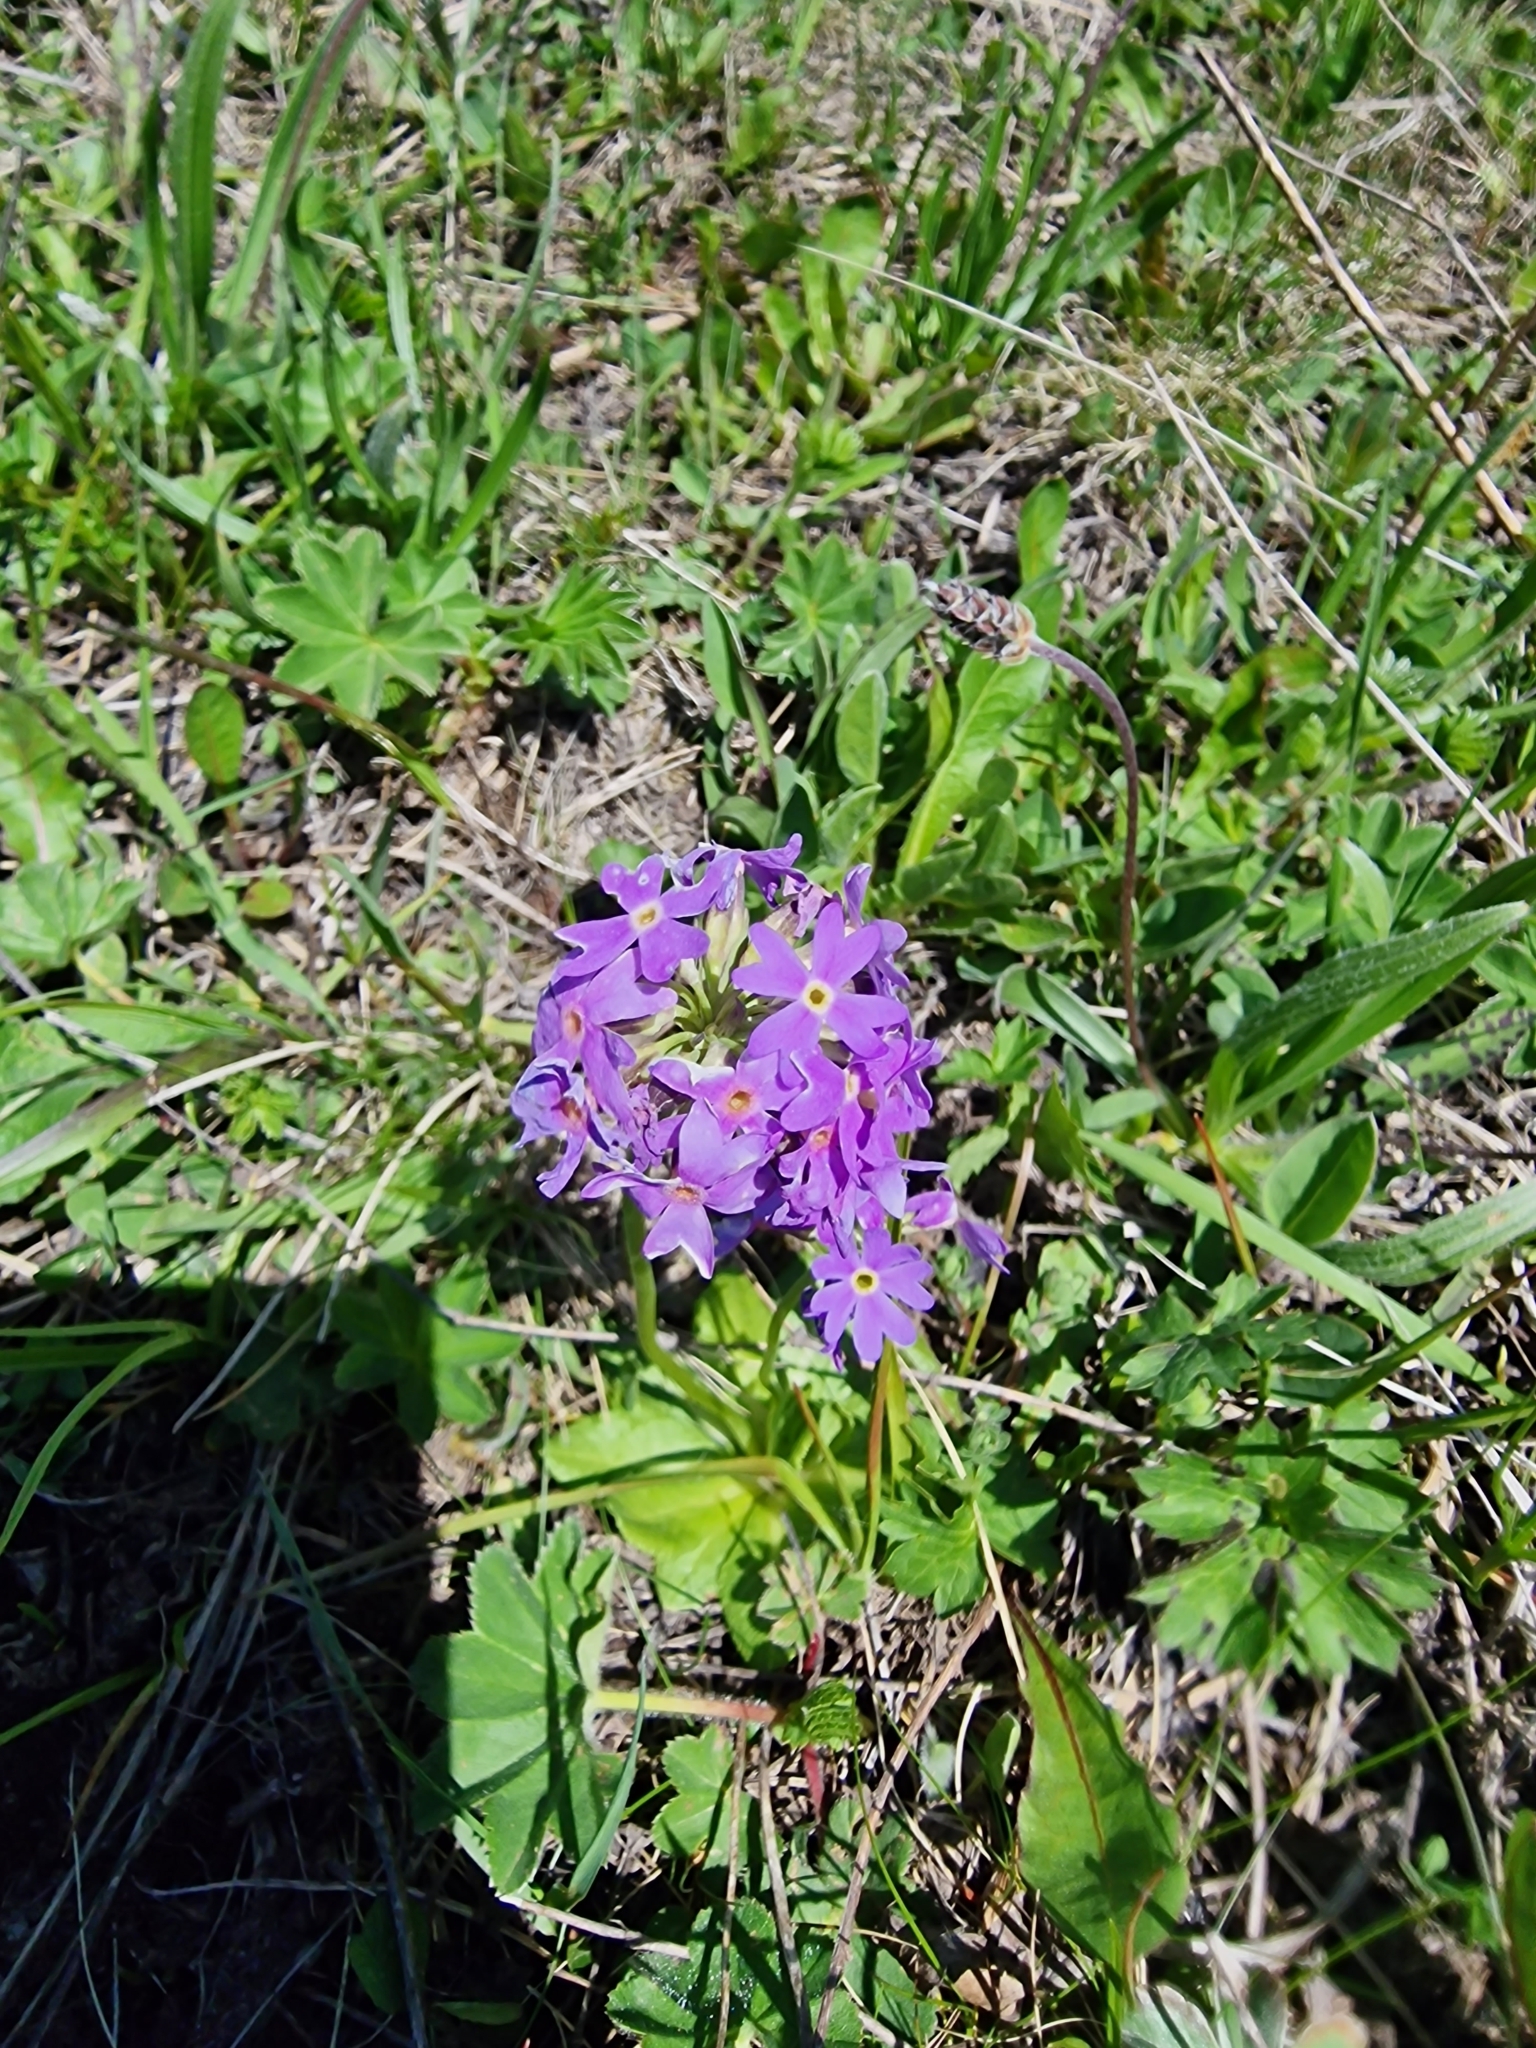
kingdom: Plantae
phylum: Tracheophyta
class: Magnoliopsida
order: Ericales
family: Primulaceae
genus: Primula
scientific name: Primula algida
